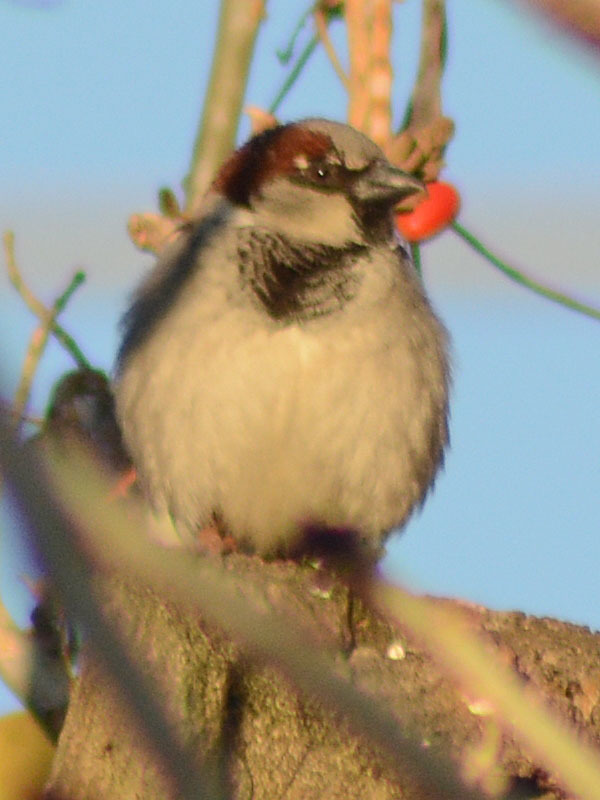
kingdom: Animalia
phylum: Chordata
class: Aves
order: Passeriformes
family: Passeridae
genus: Passer
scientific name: Passer domesticus
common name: House sparrow
